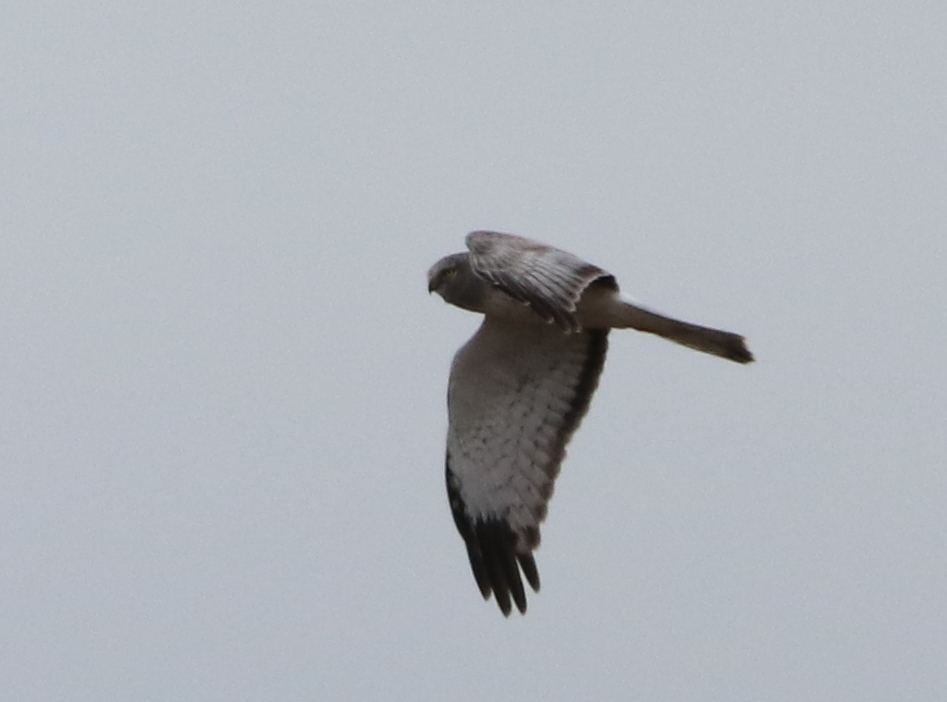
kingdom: Animalia
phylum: Chordata
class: Aves
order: Accipitriformes
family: Accipitridae
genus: Circus
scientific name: Circus cyaneus
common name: Hen harrier
